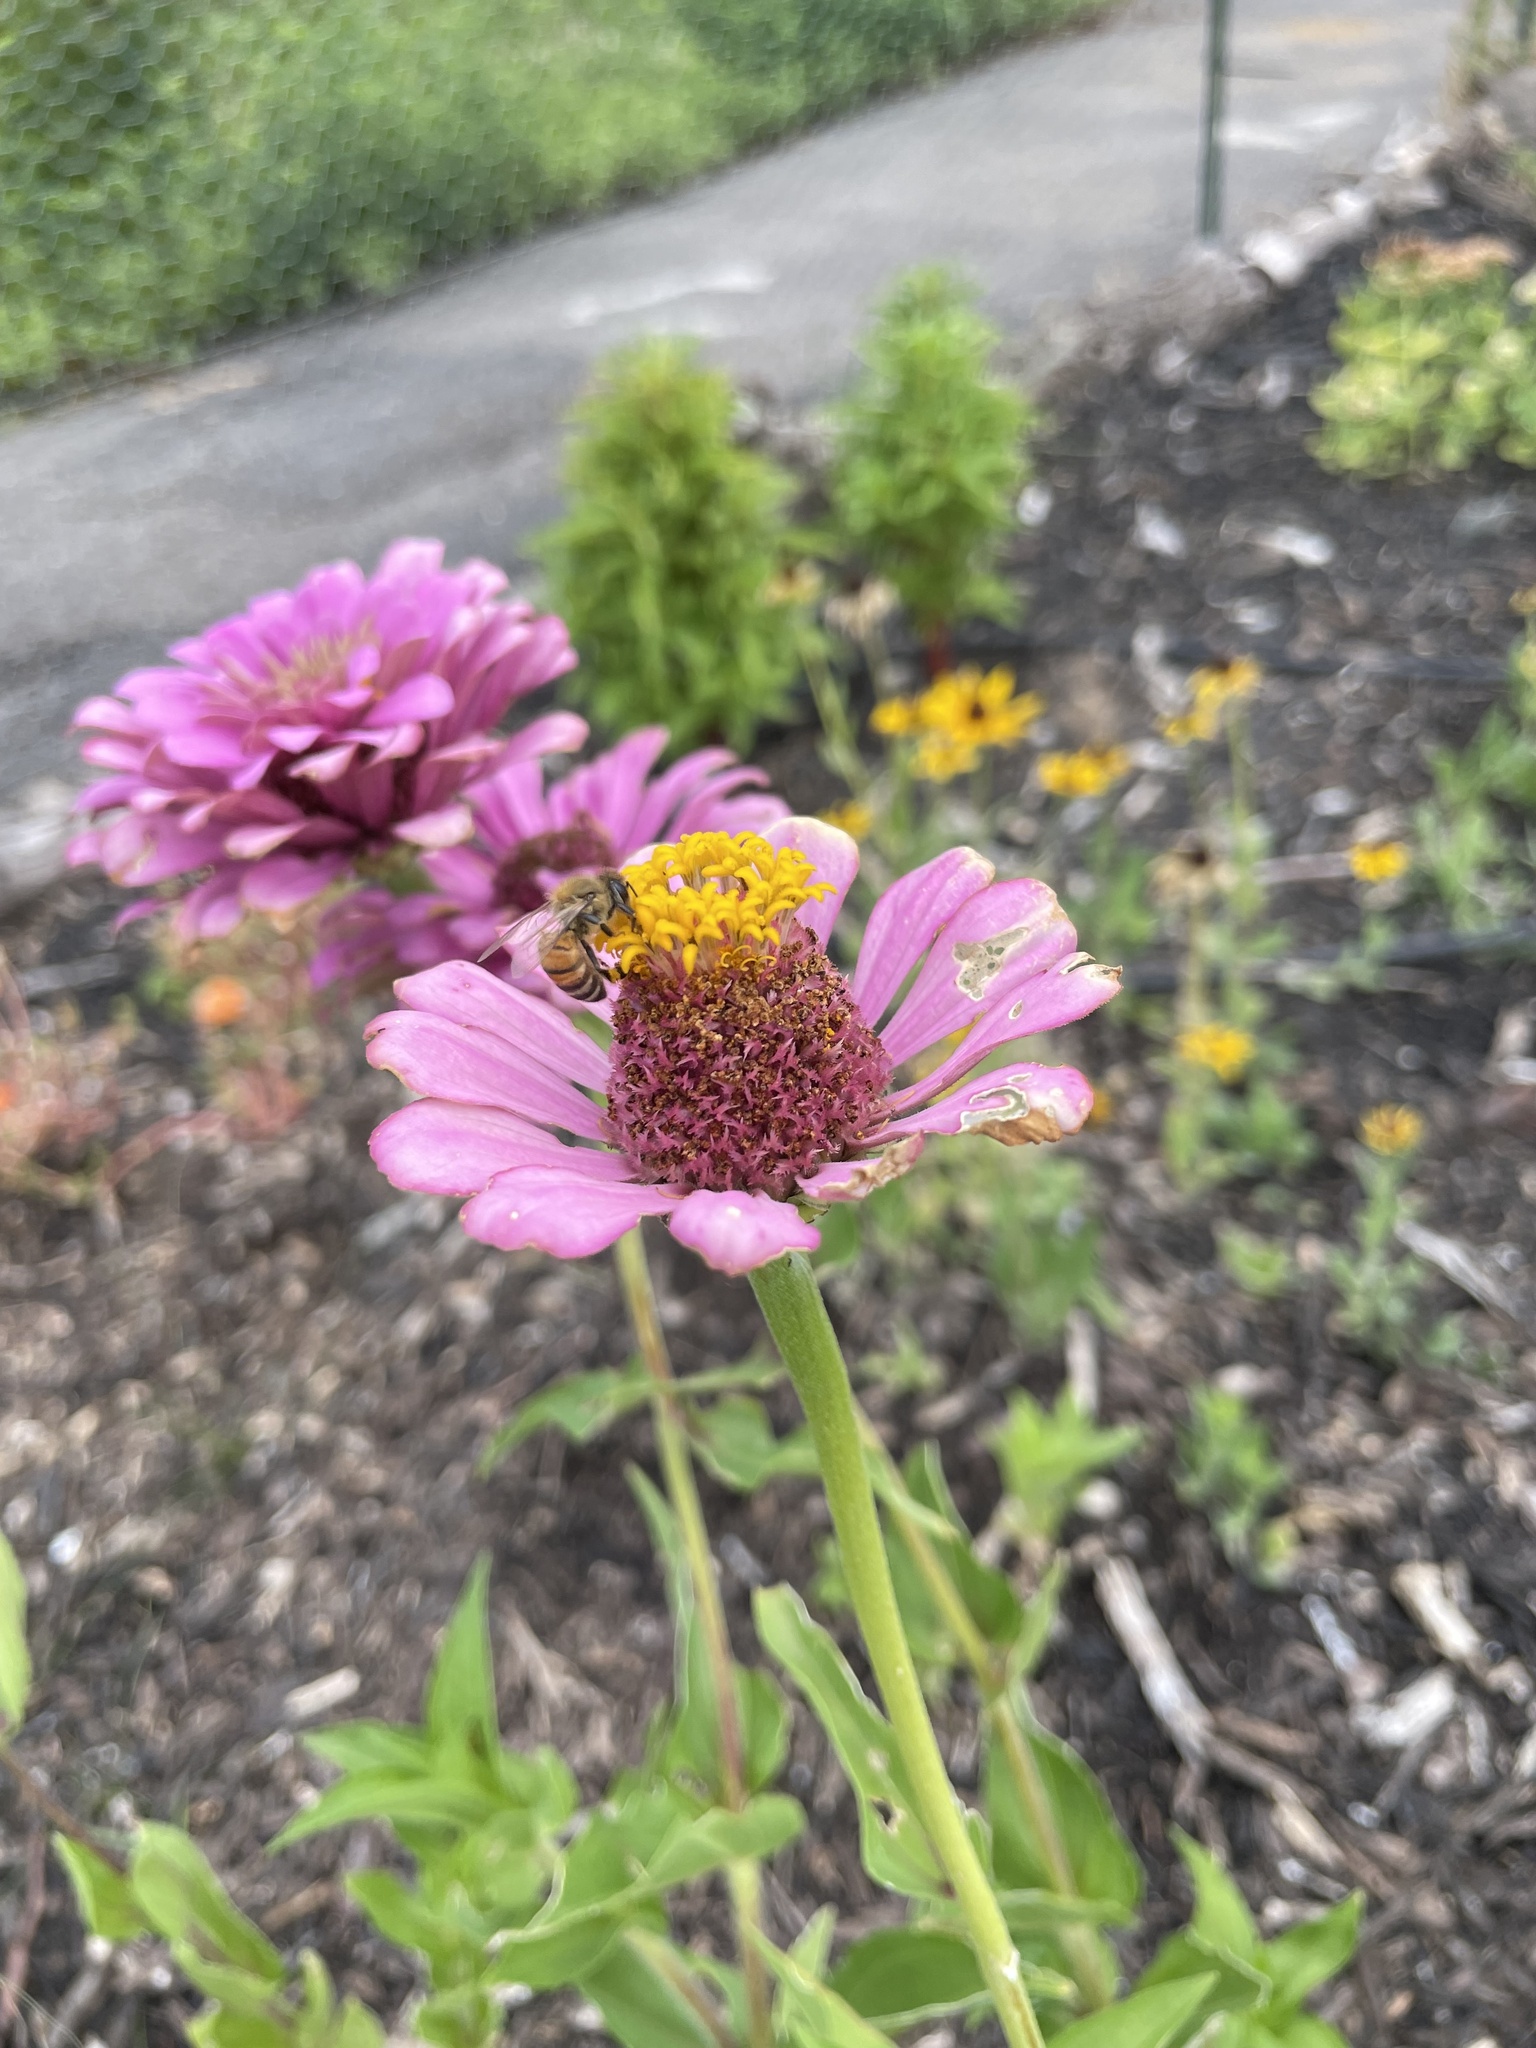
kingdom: Animalia
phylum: Arthropoda
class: Insecta
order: Hymenoptera
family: Apidae
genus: Apis
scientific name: Apis mellifera
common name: Honey bee
